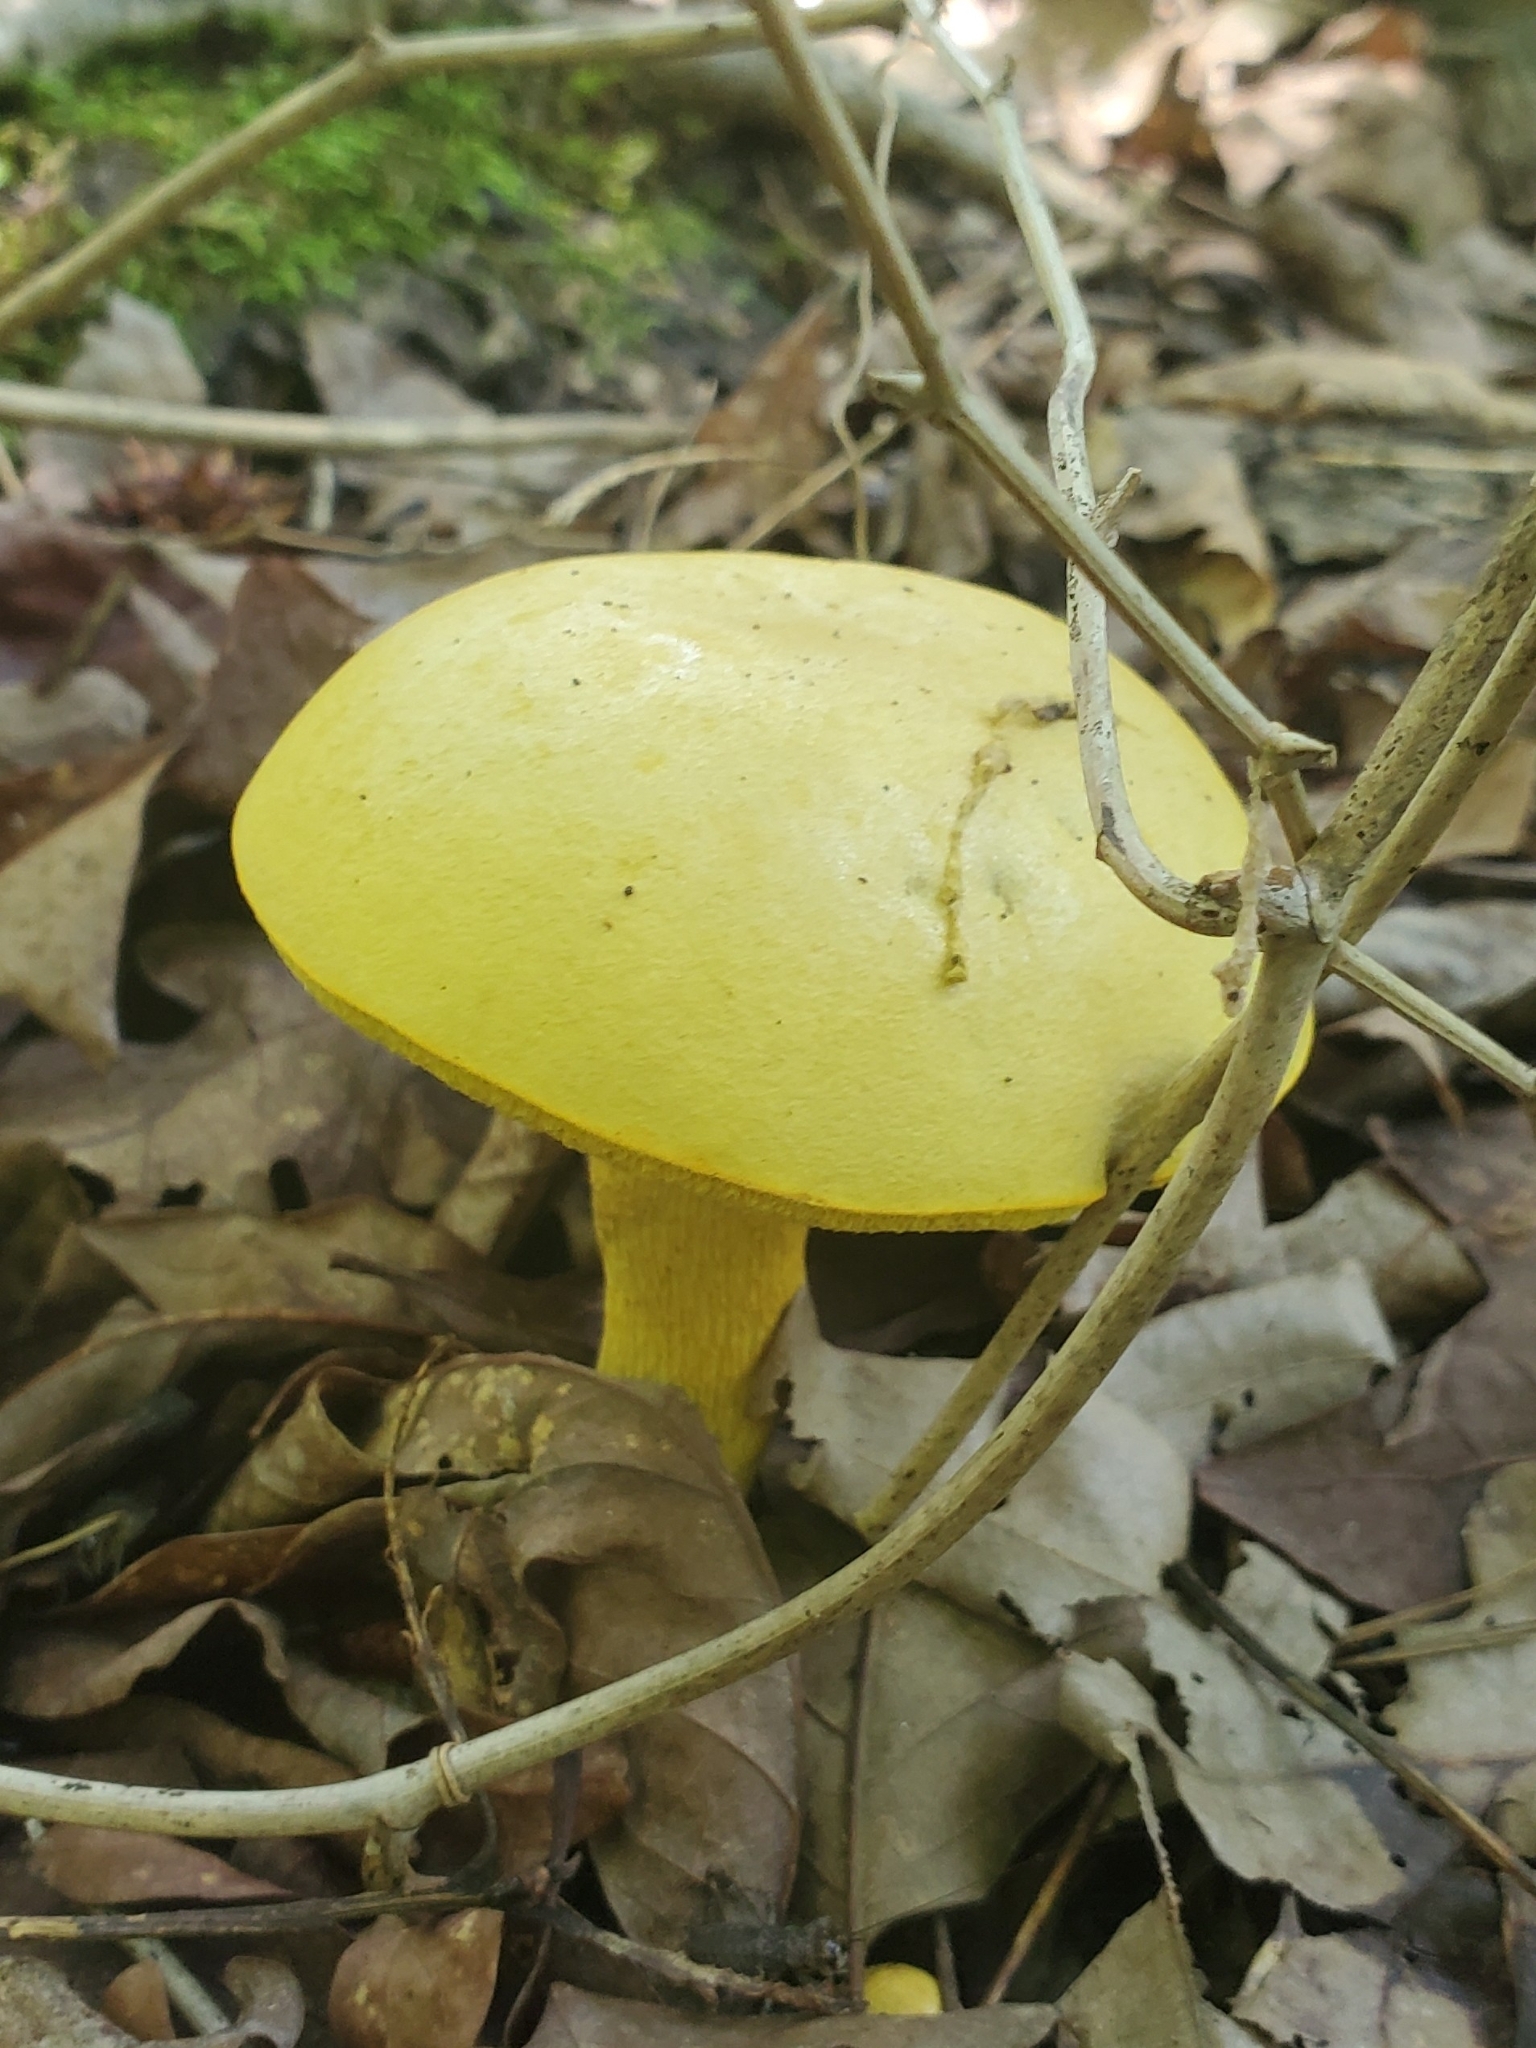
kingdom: Fungi
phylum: Basidiomycota
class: Agaricomycetes
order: Boletales
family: Boletaceae
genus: Retiboletus
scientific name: Retiboletus ornatipes
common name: Ornate-stalked bolete
